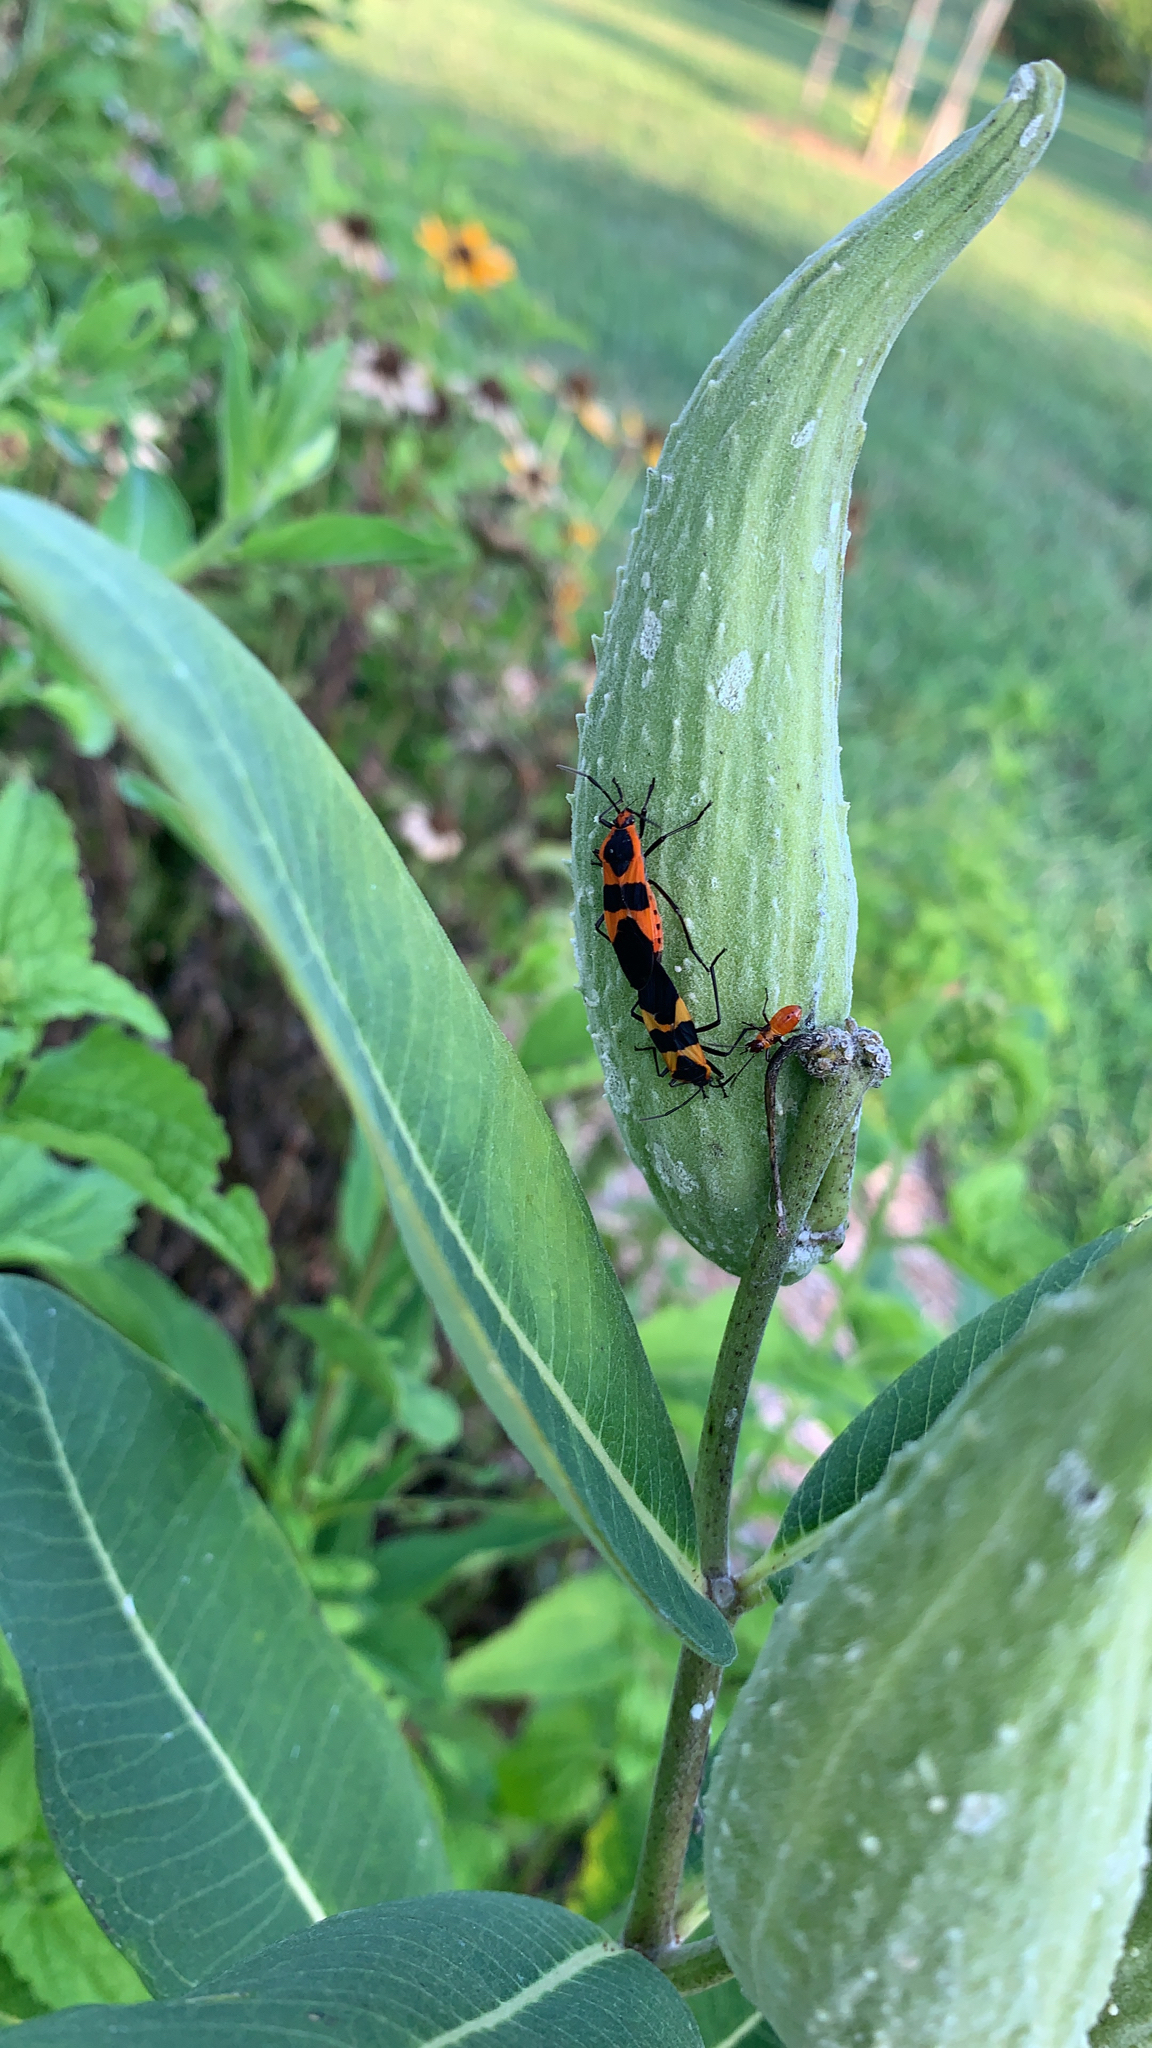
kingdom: Animalia
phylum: Arthropoda
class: Insecta
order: Hemiptera
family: Lygaeidae
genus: Oncopeltus
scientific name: Oncopeltus fasciatus
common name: Large milkweed bug
